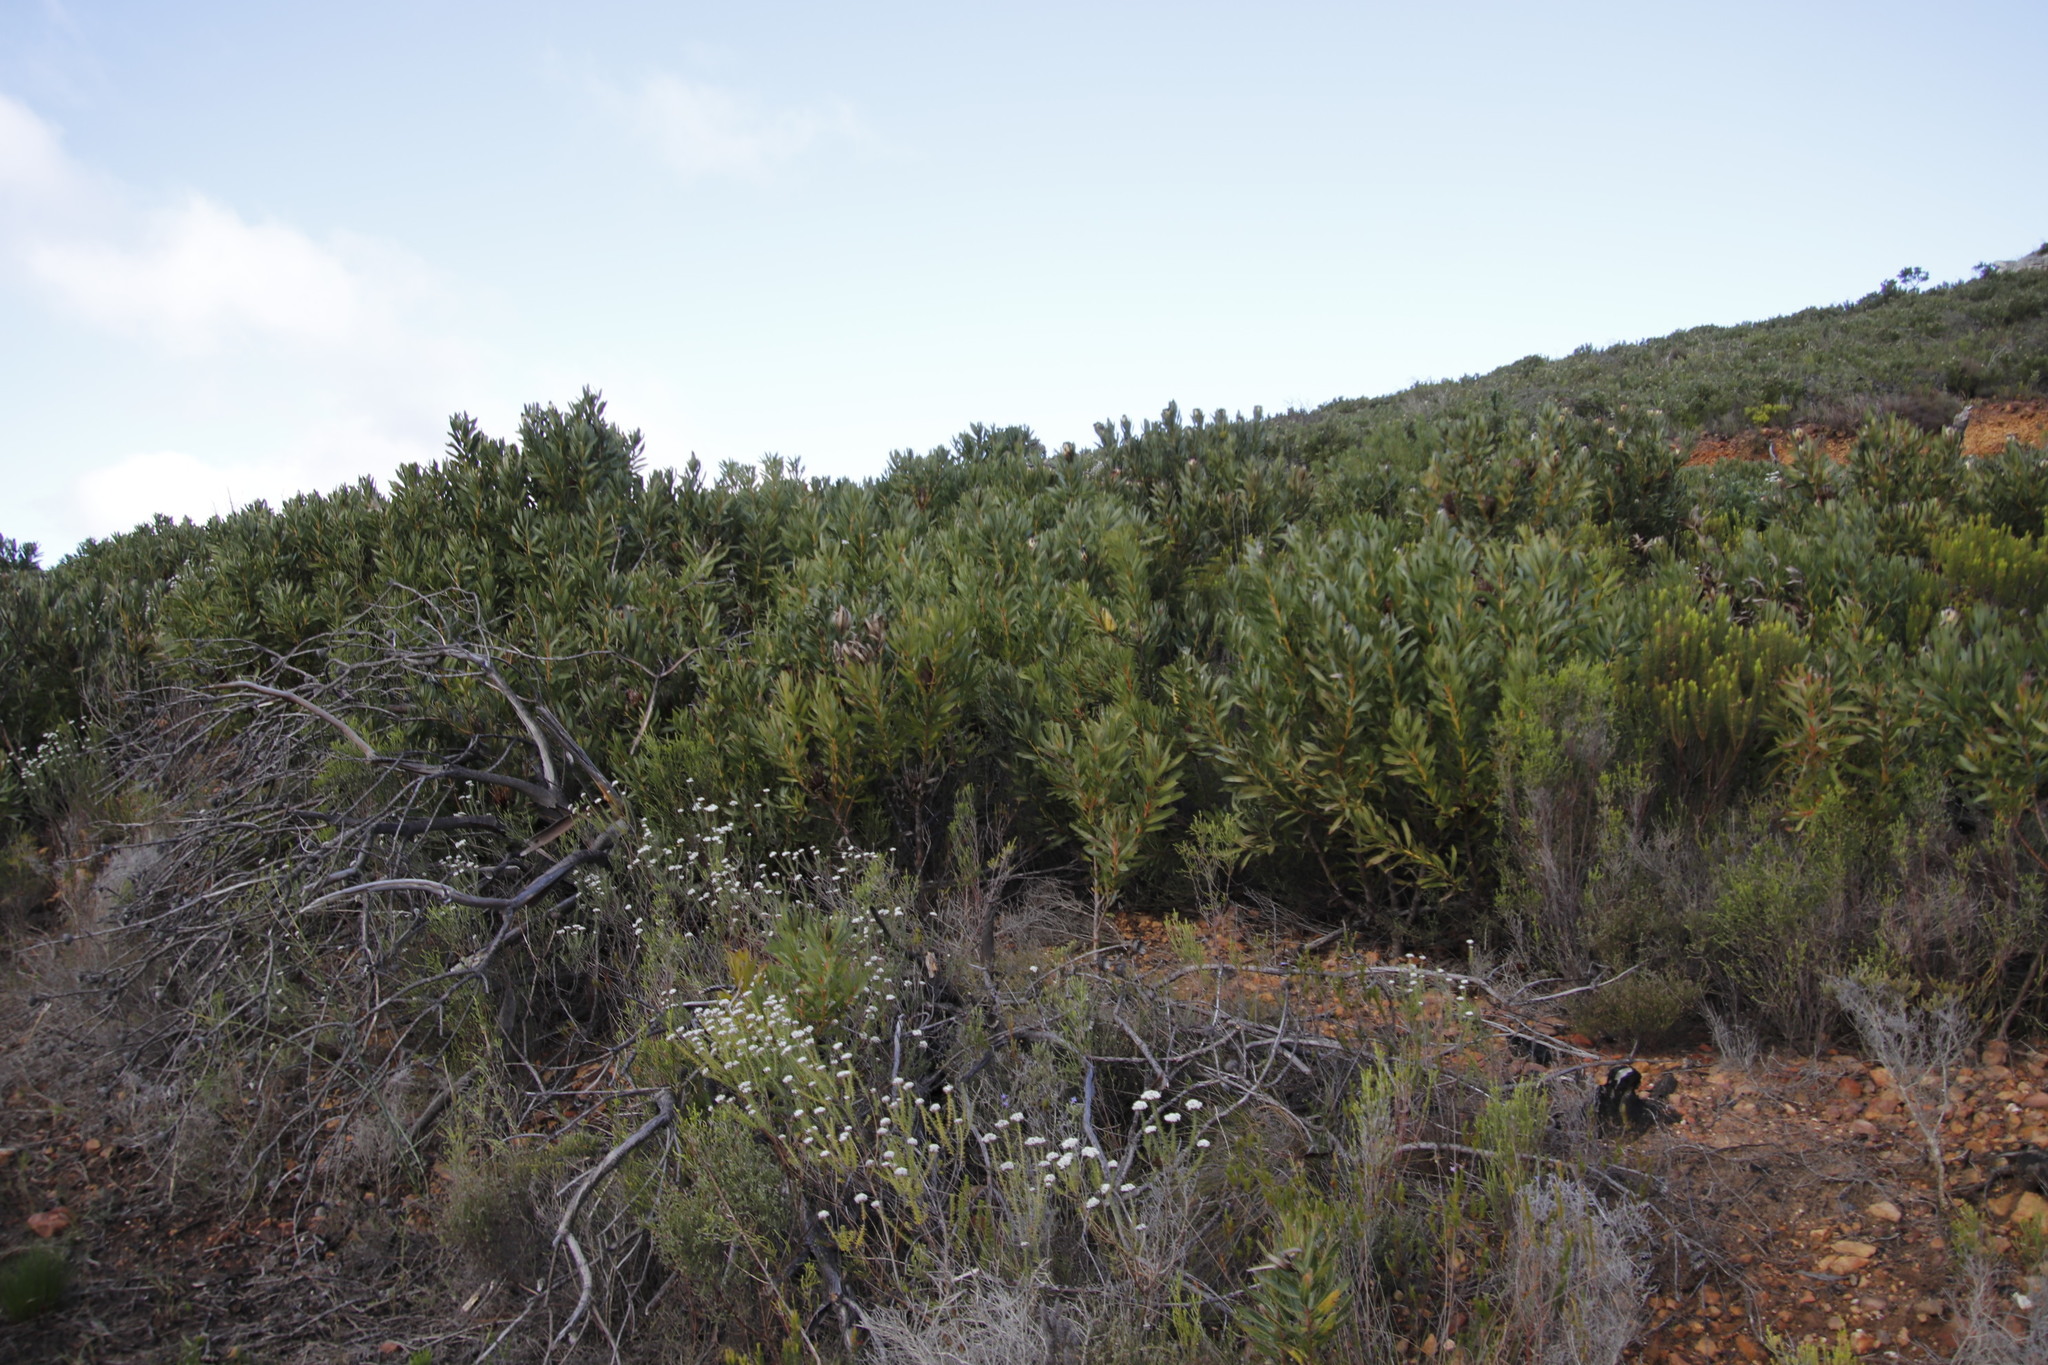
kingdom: Plantae
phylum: Tracheophyta
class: Magnoliopsida
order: Proteales
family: Proteaceae
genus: Protea
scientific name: Protea lepidocarpodendron
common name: Black-bearded protea
